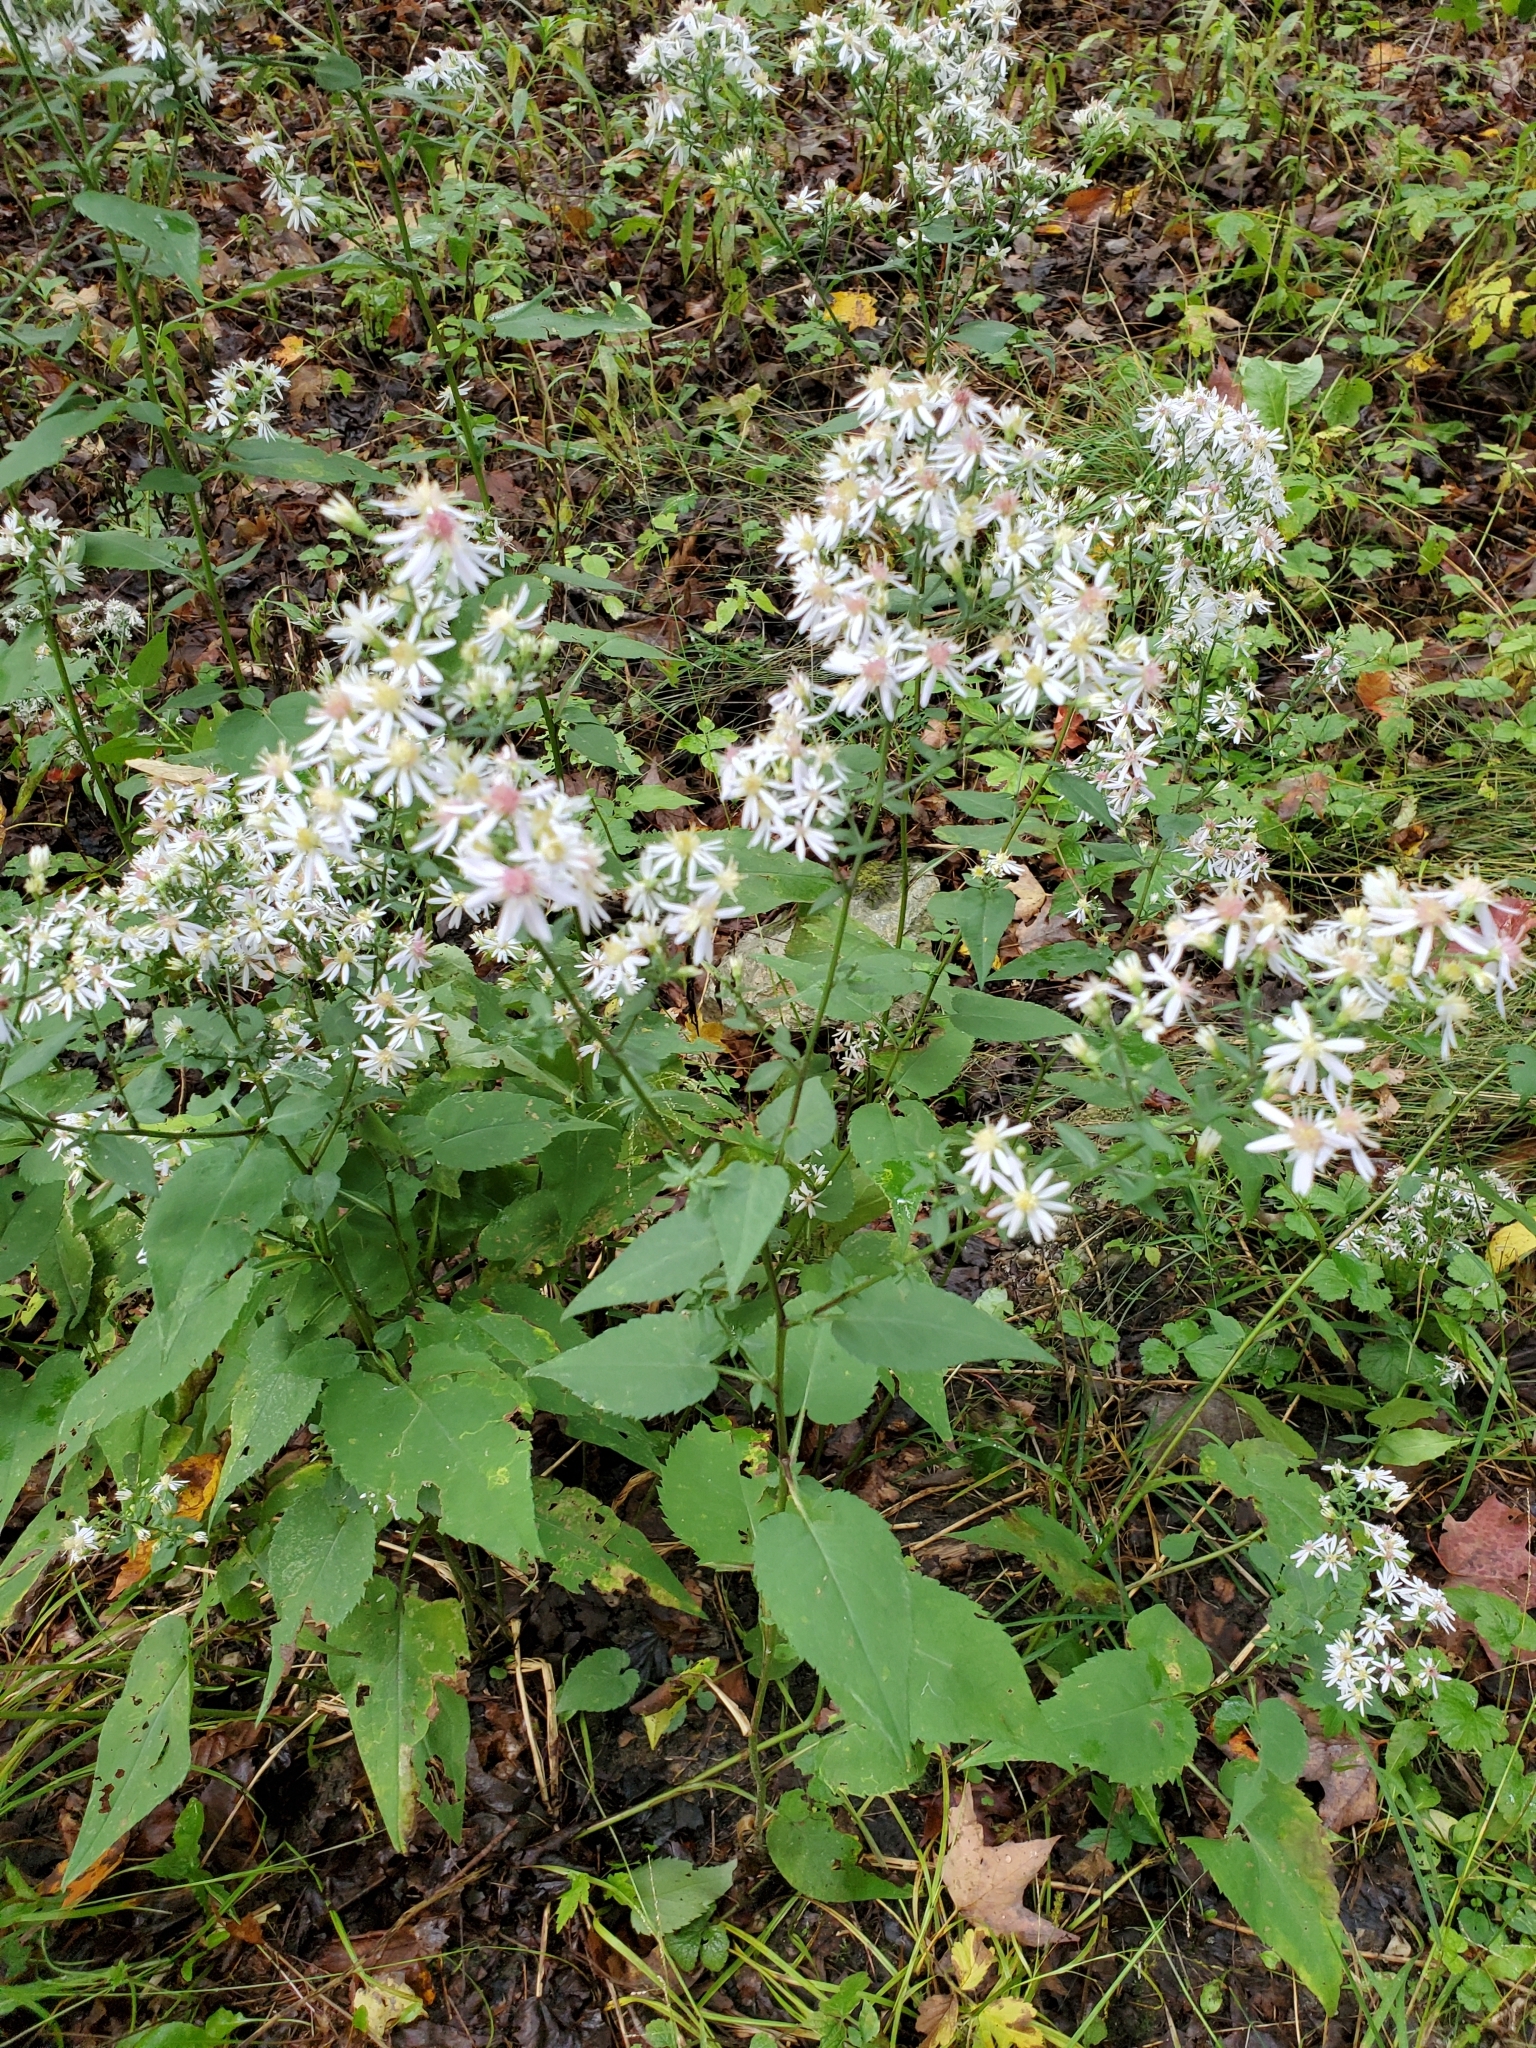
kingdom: Plantae
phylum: Tracheophyta
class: Magnoliopsida
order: Asterales
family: Asteraceae
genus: Symphyotrichum
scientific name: Symphyotrichum cordifolium
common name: Beeweed
